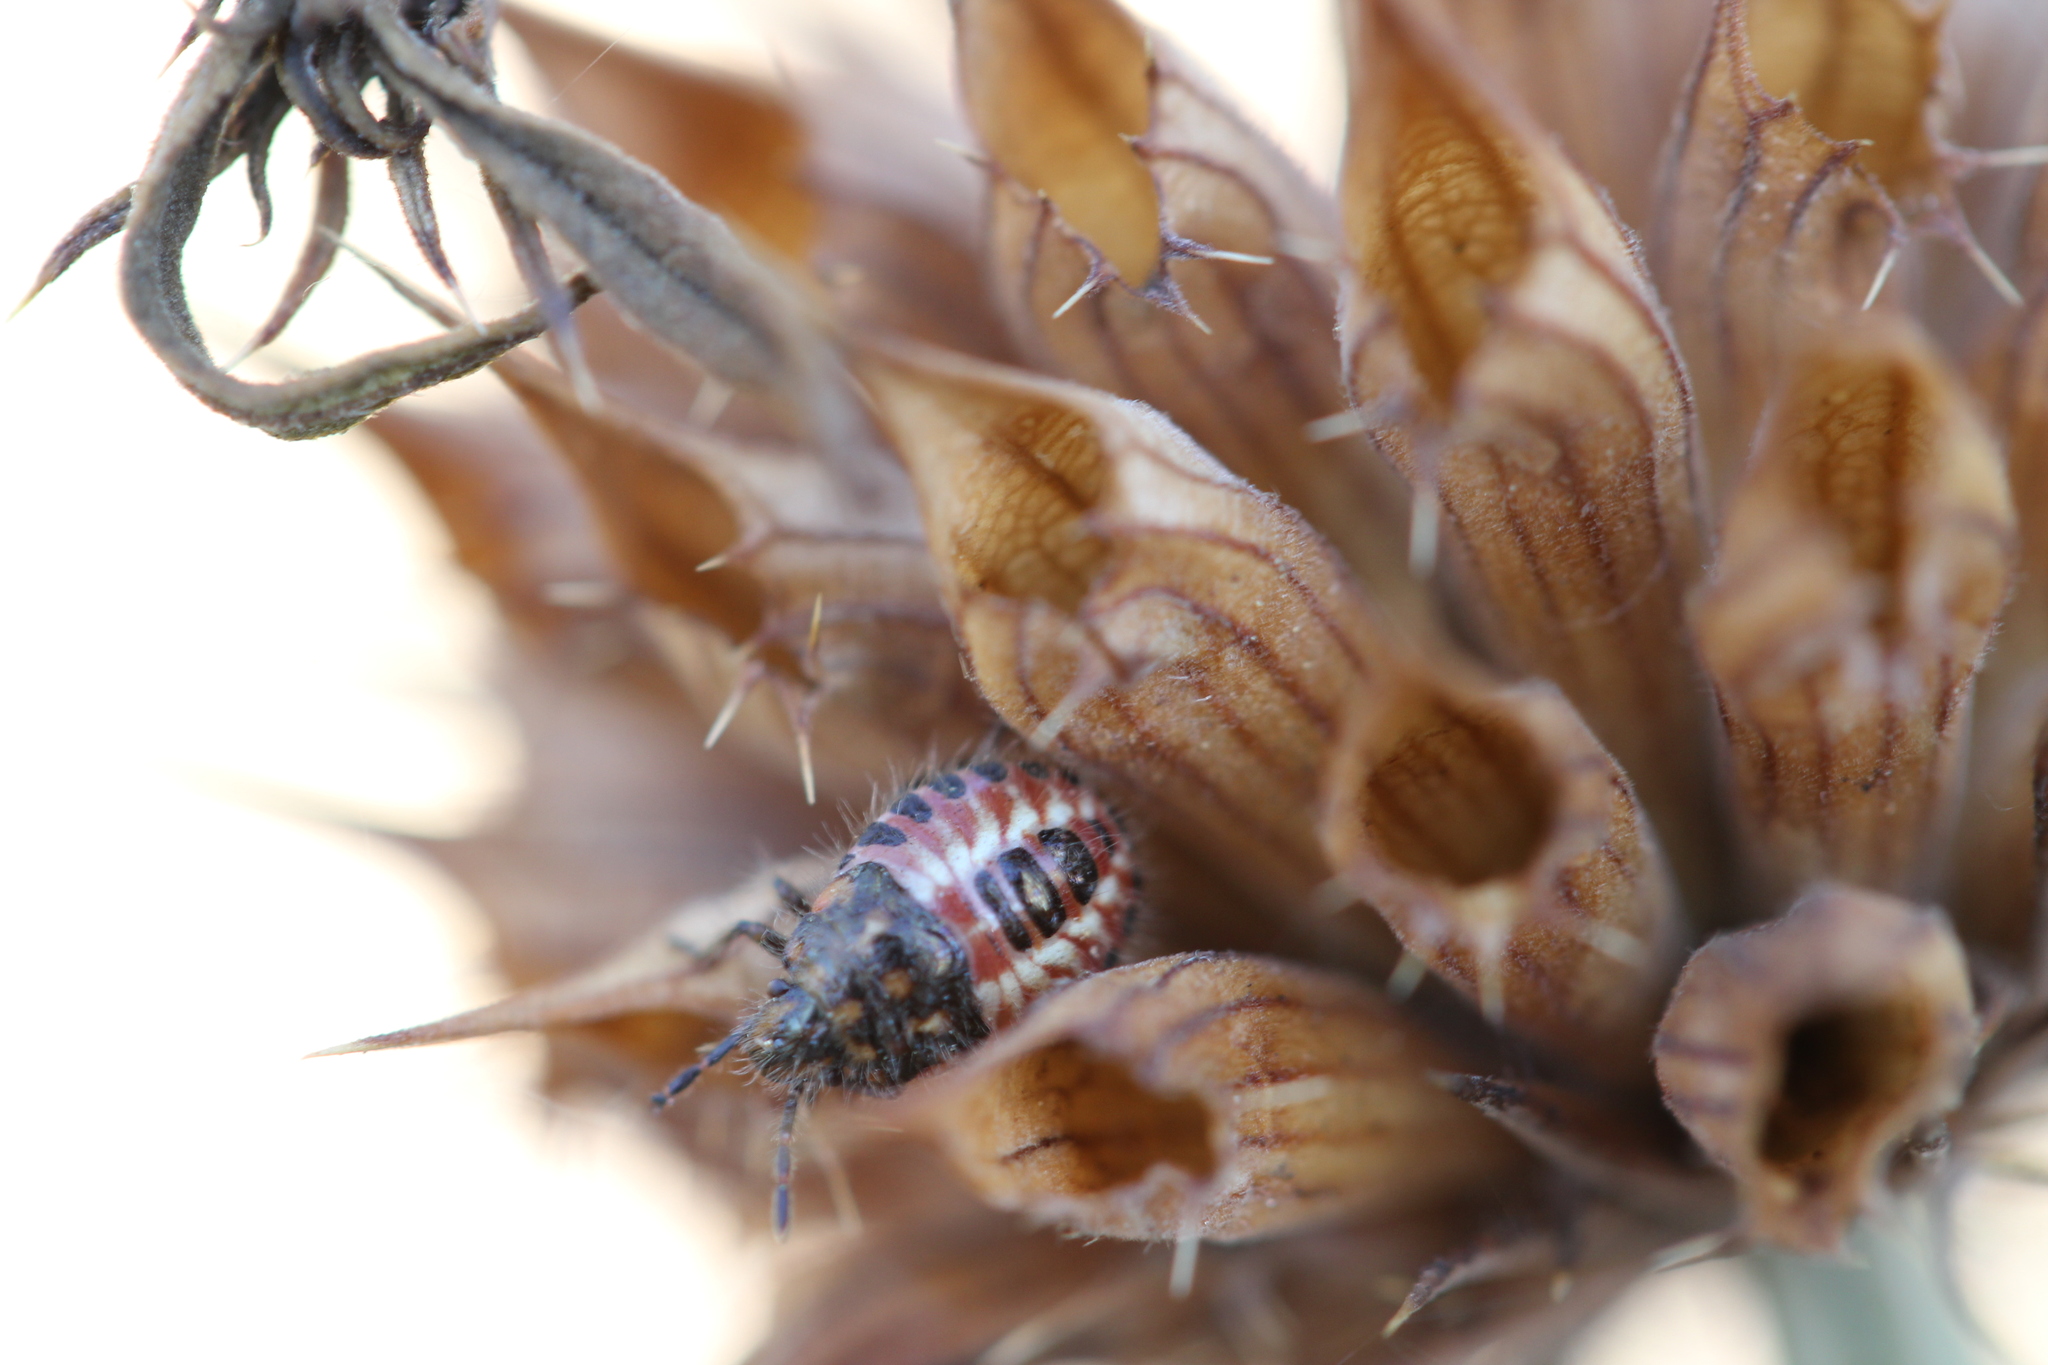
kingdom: Animalia
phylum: Arthropoda
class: Insecta
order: Hemiptera
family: Pentatomidae
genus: Agonoscelis
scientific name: Agonoscelis puberula
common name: African cluster bug
